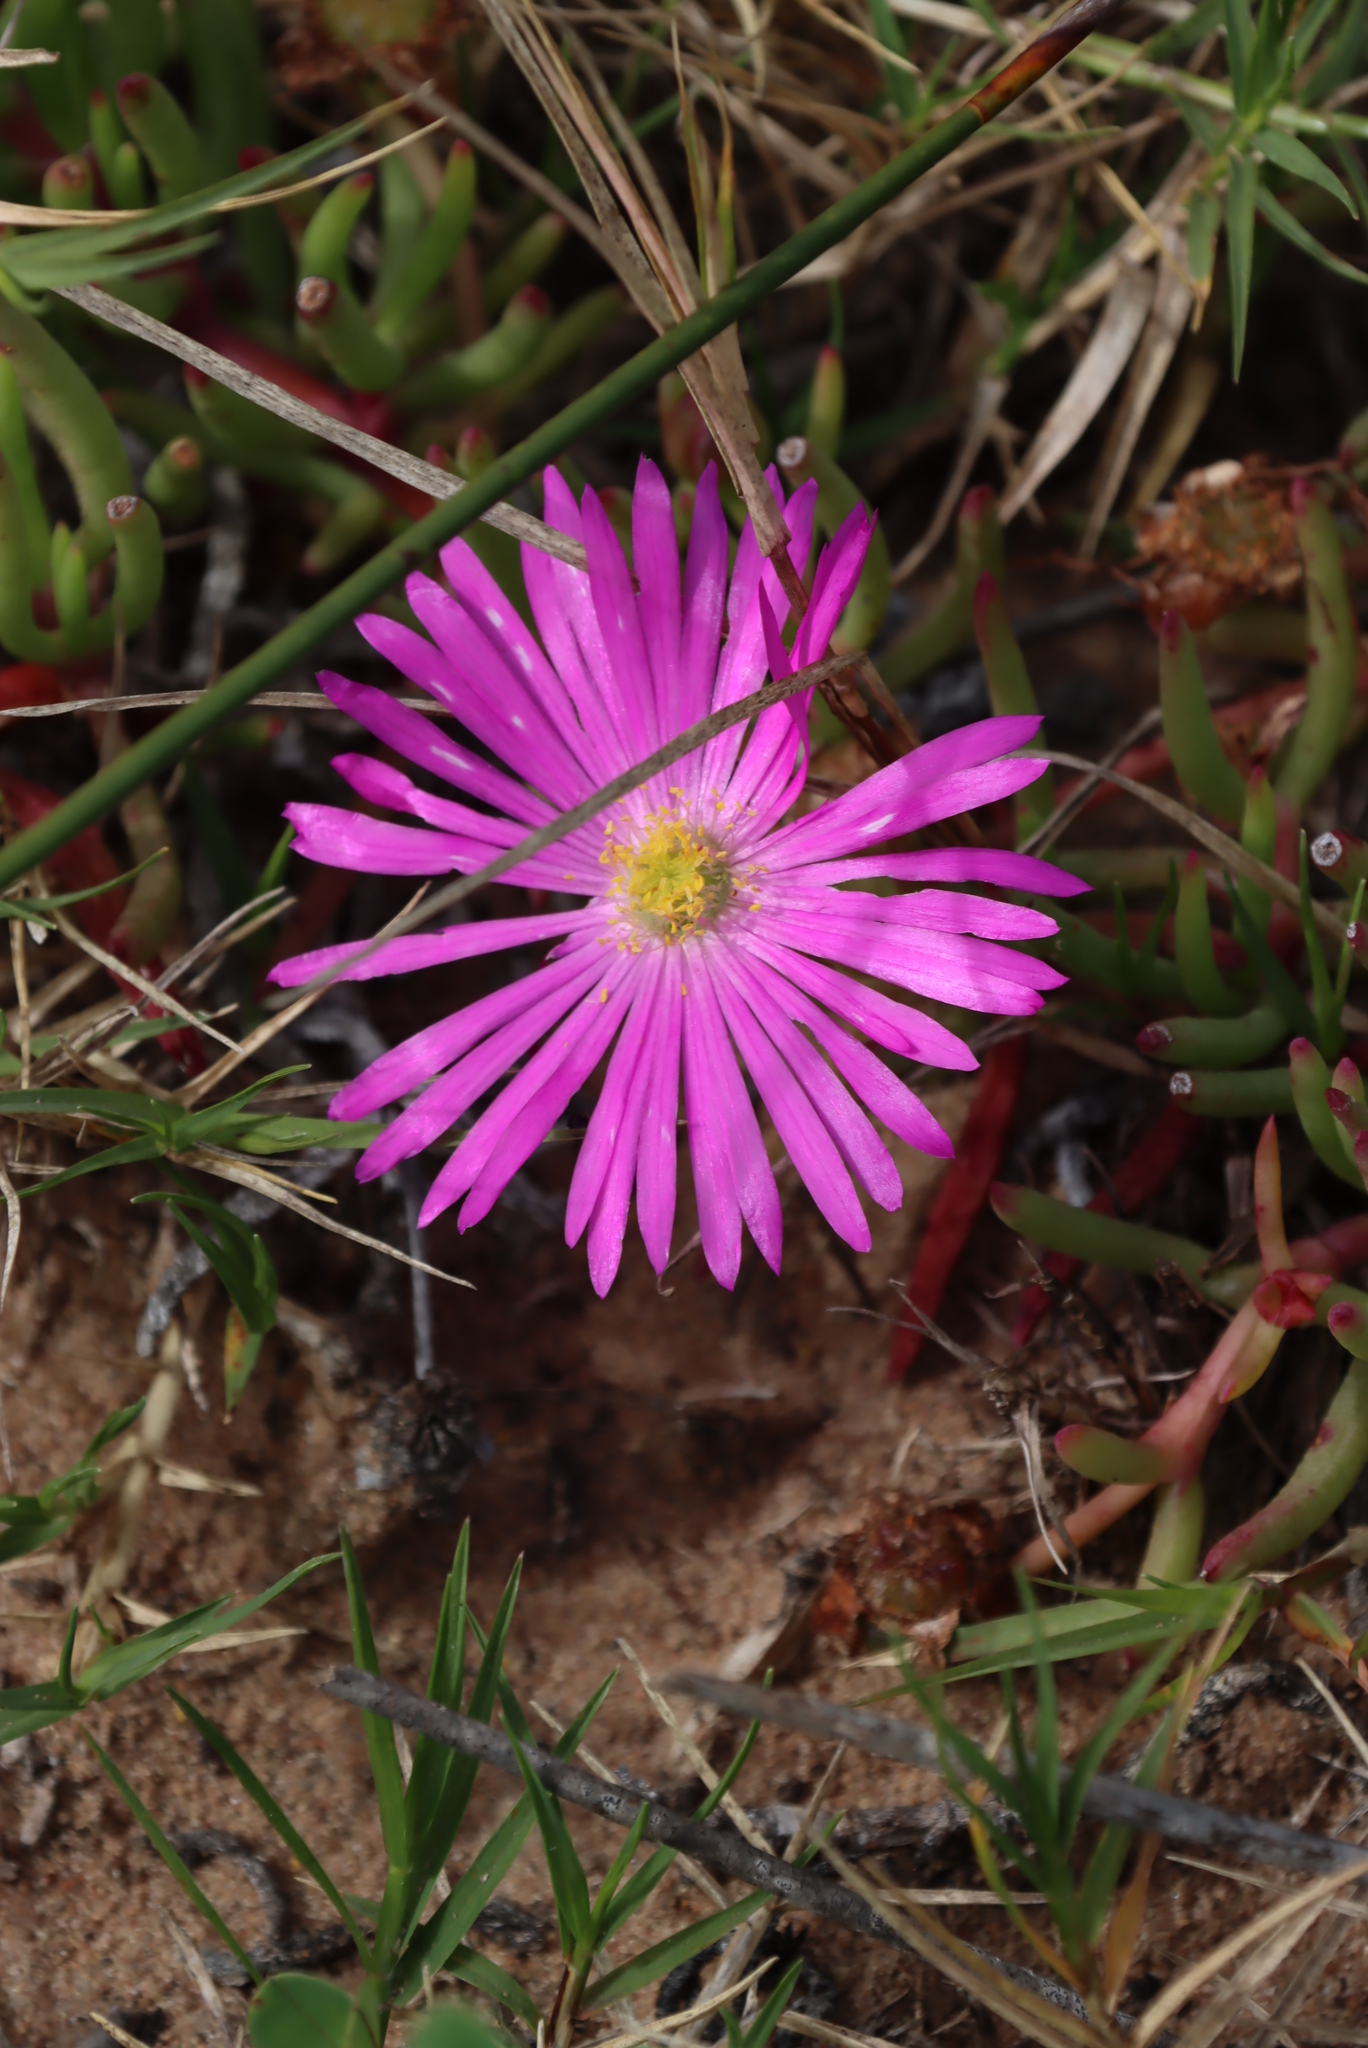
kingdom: Plantae
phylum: Tracheophyta
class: Magnoliopsida
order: Caryophyllales
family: Aizoaceae
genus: Jordaaniella
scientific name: Jordaaniella dubia
